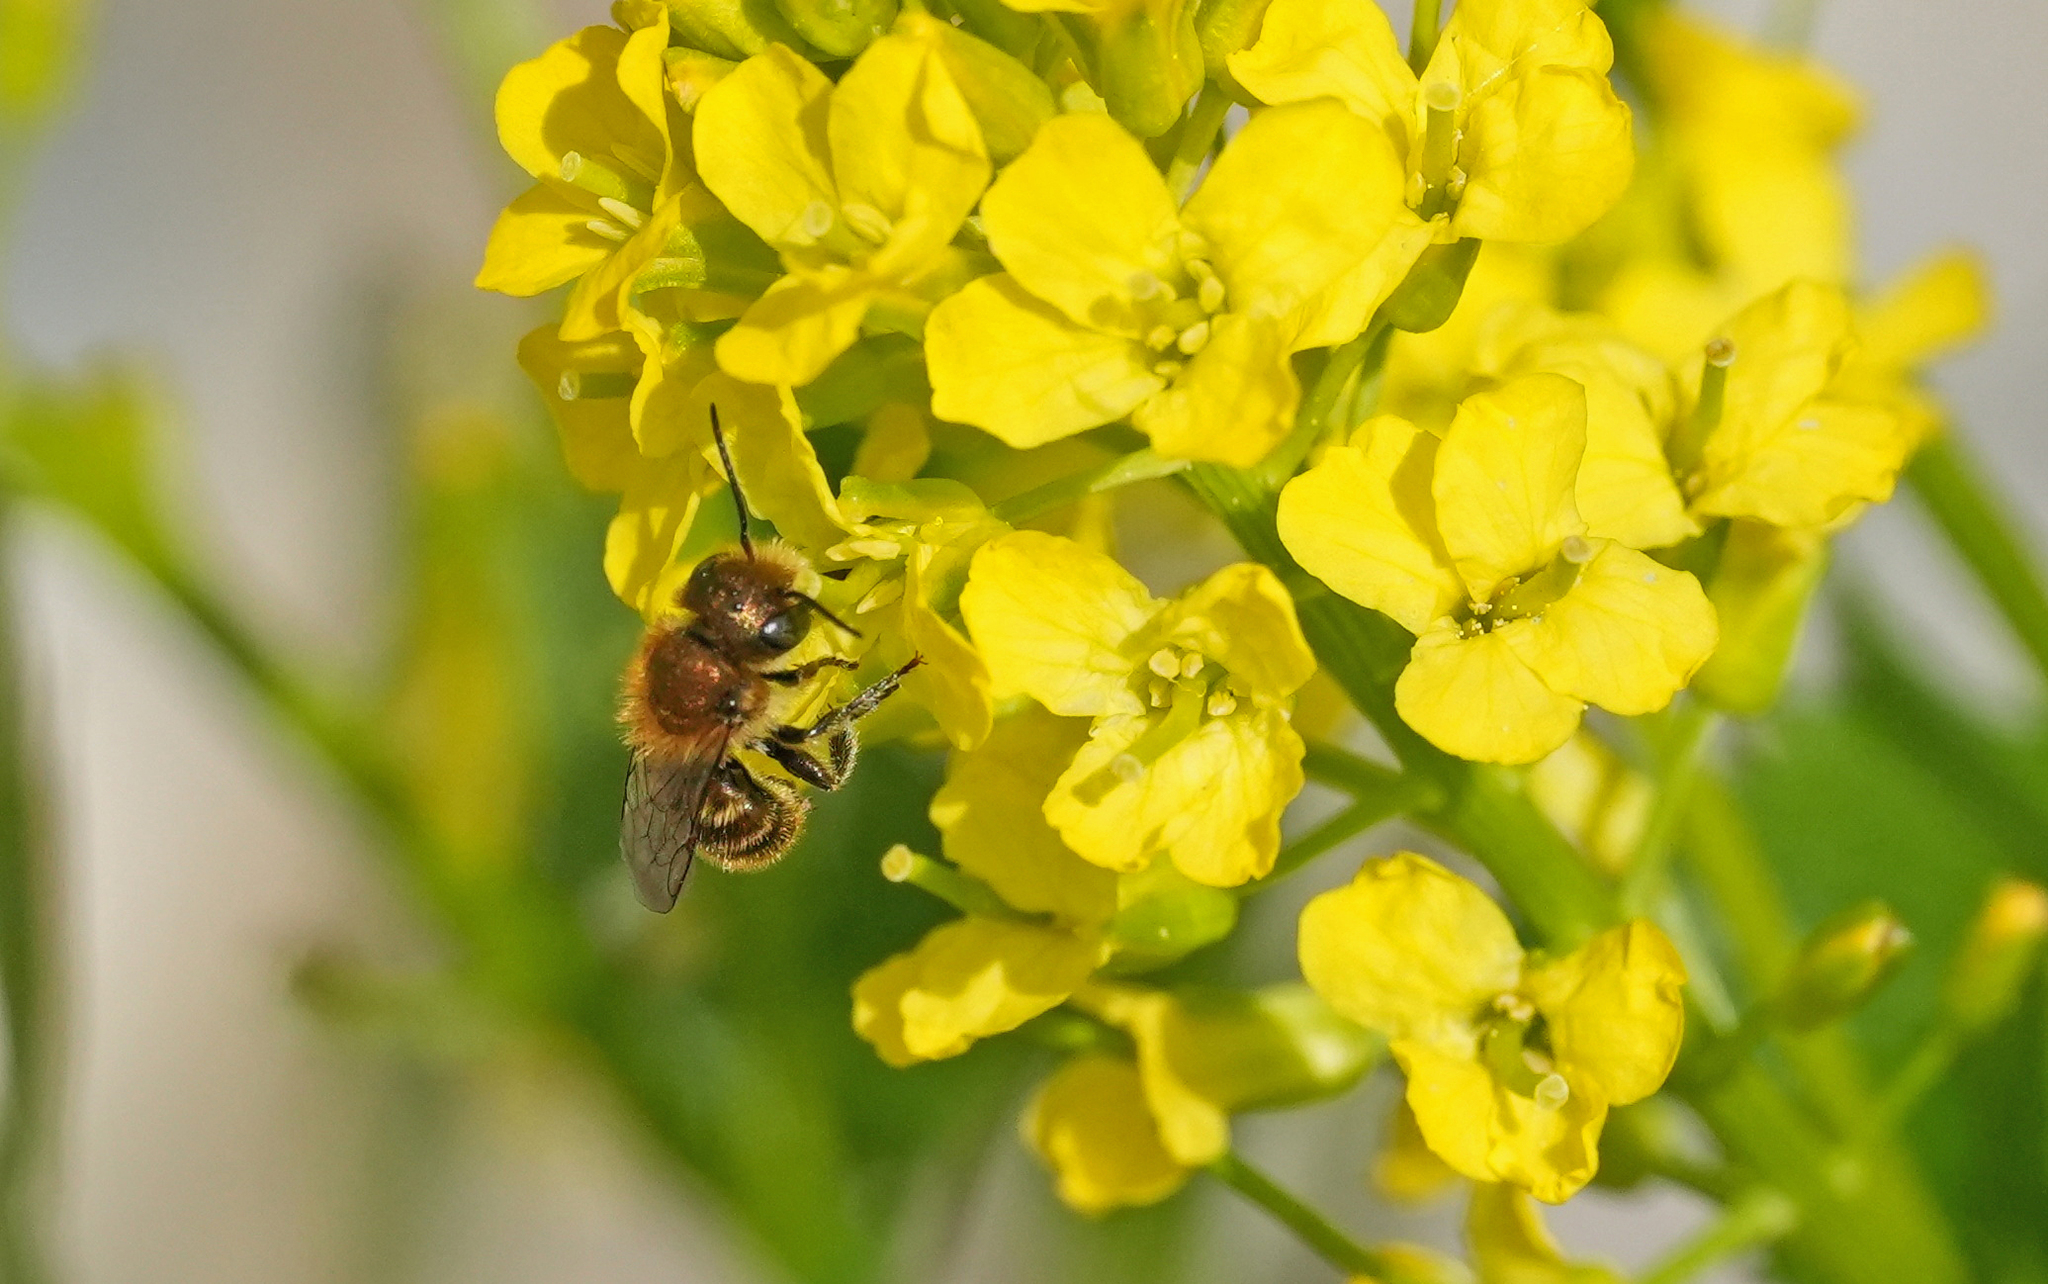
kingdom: Animalia
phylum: Arthropoda
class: Insecta
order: Hymenoptera
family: Megachilidae
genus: Osmia
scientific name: Osmia caerulescens
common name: Blue mason bee
